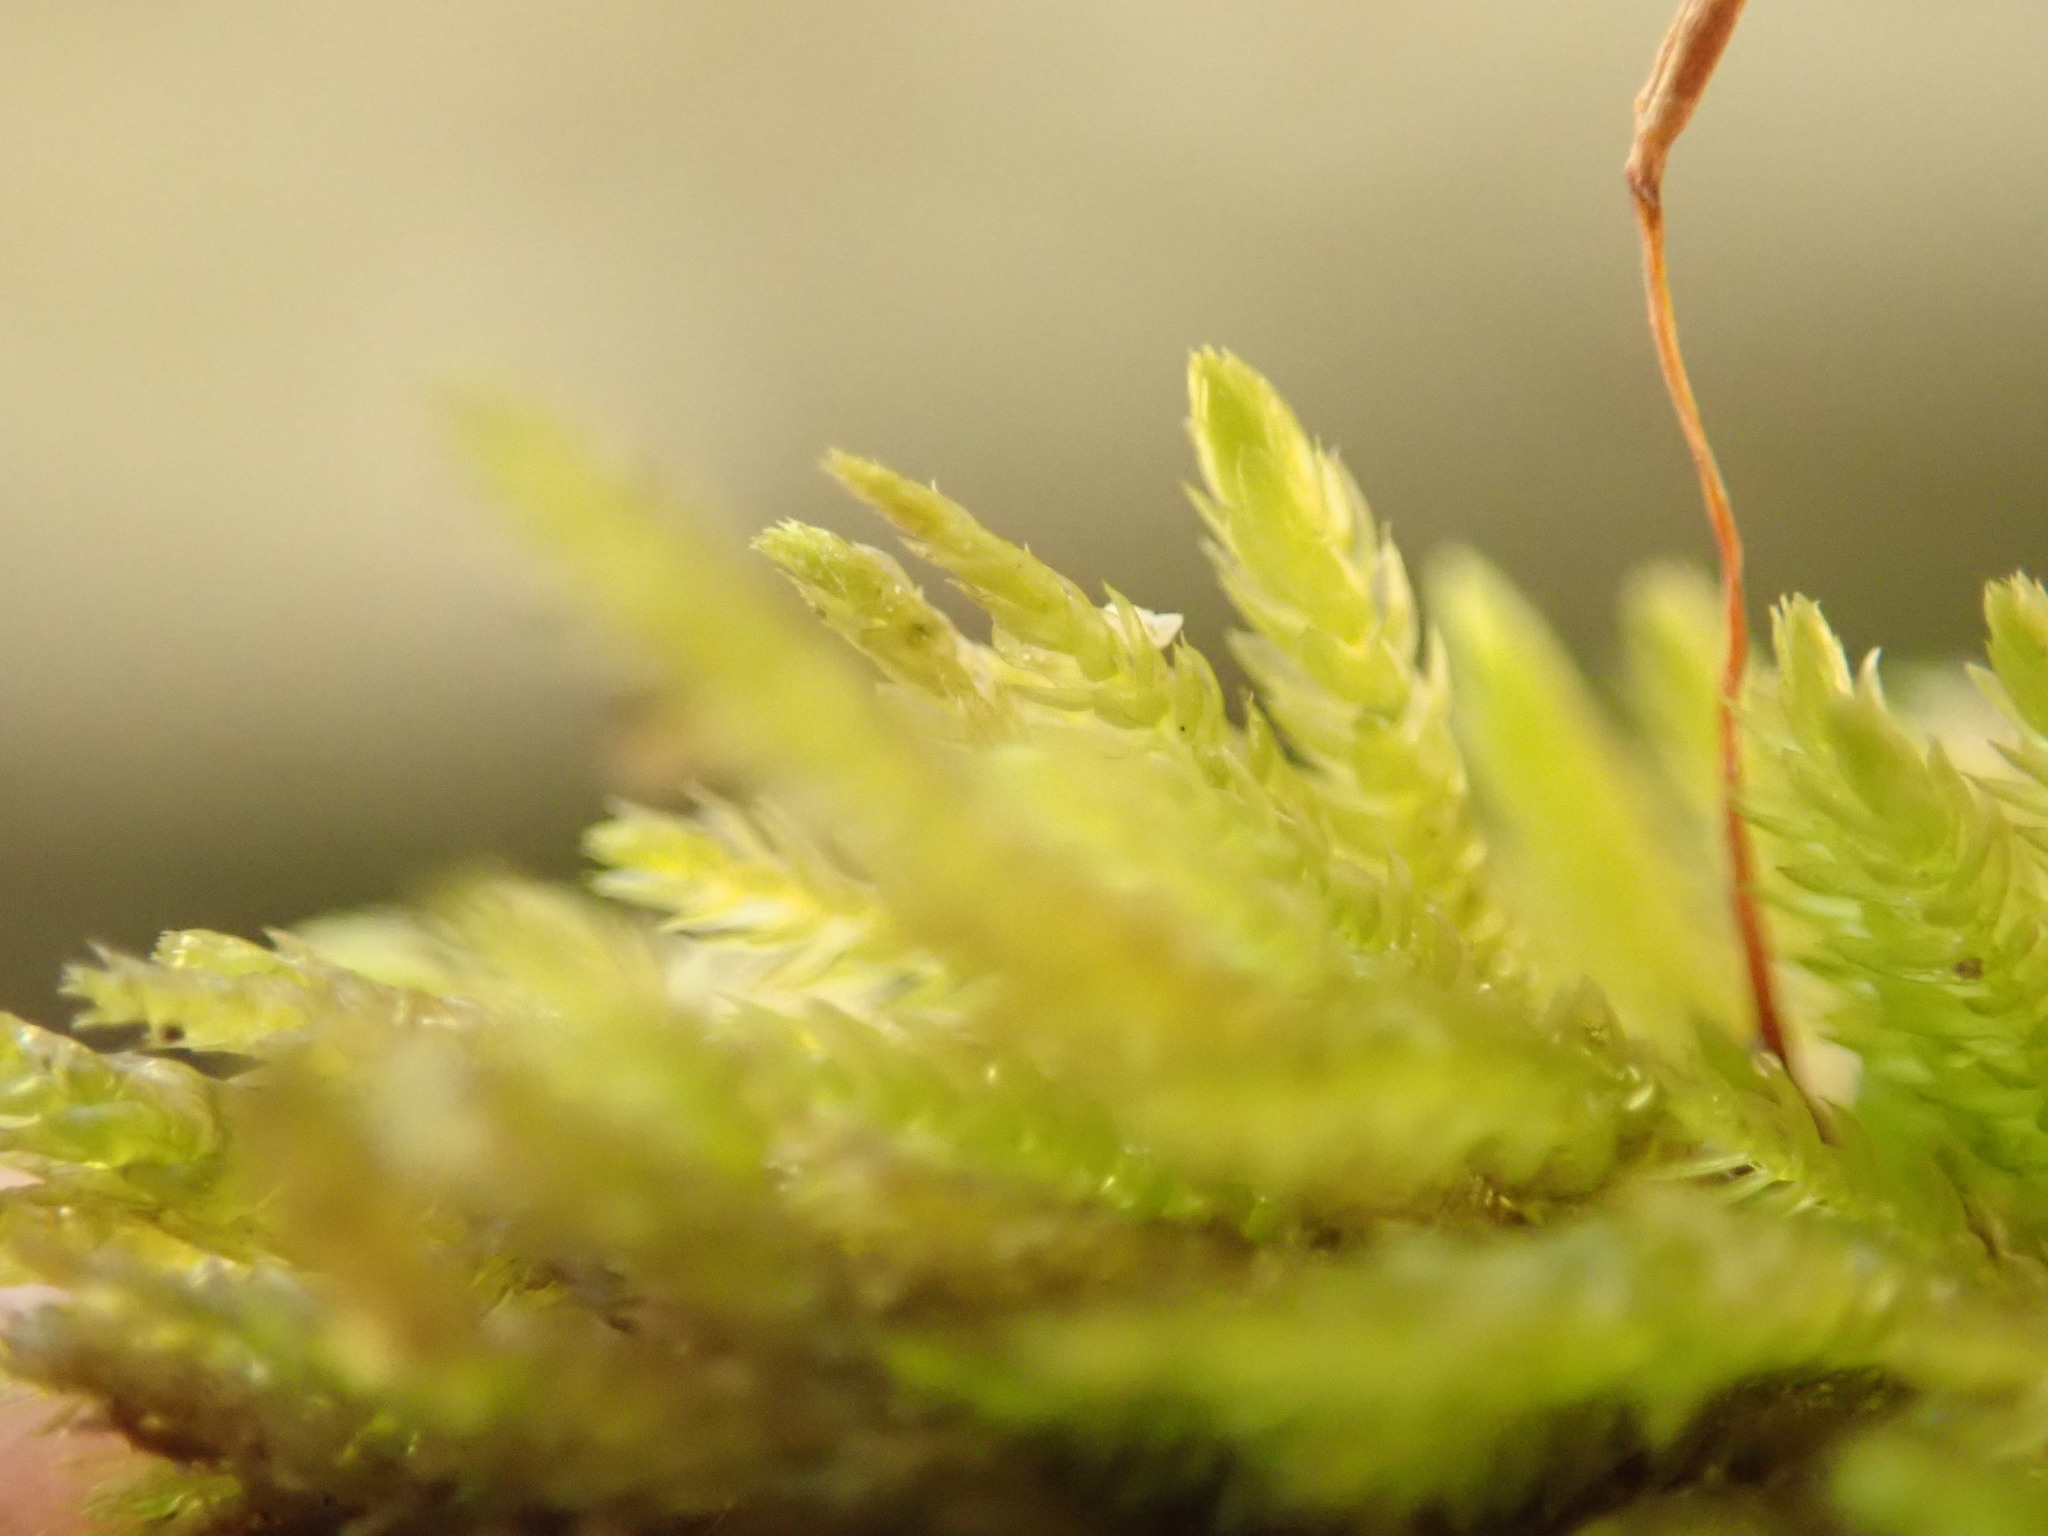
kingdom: Plantae
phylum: Bryophyta
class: Bryopsida
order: Hypnales
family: Brachytheciaceae
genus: Eurhynchiastrum
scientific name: Eurhynchiastrum pulchellum
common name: Elegant beaked moss
